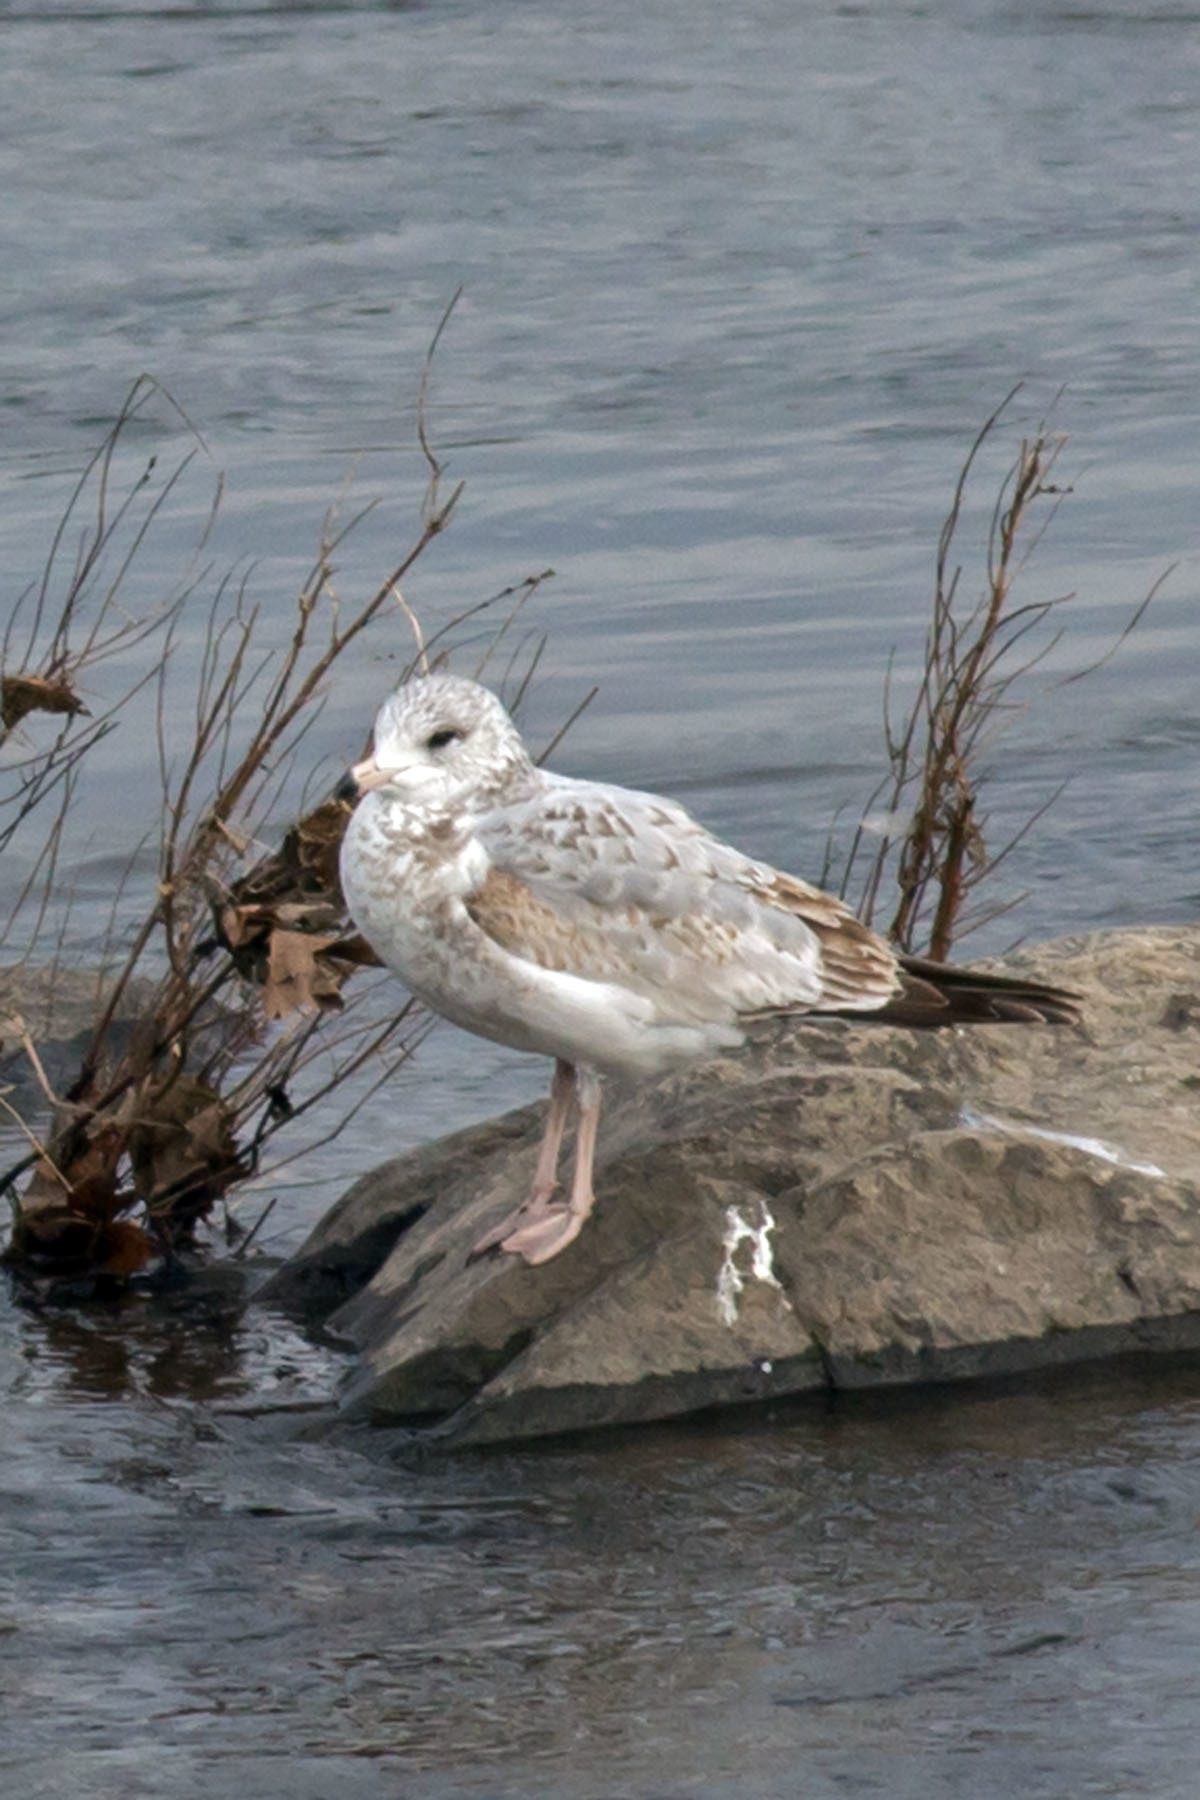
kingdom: Animalia
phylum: Chordata
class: Aves
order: Charadriiformes
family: Laridae
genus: Larus
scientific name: Larus delawarensis
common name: Ring-billed gull
